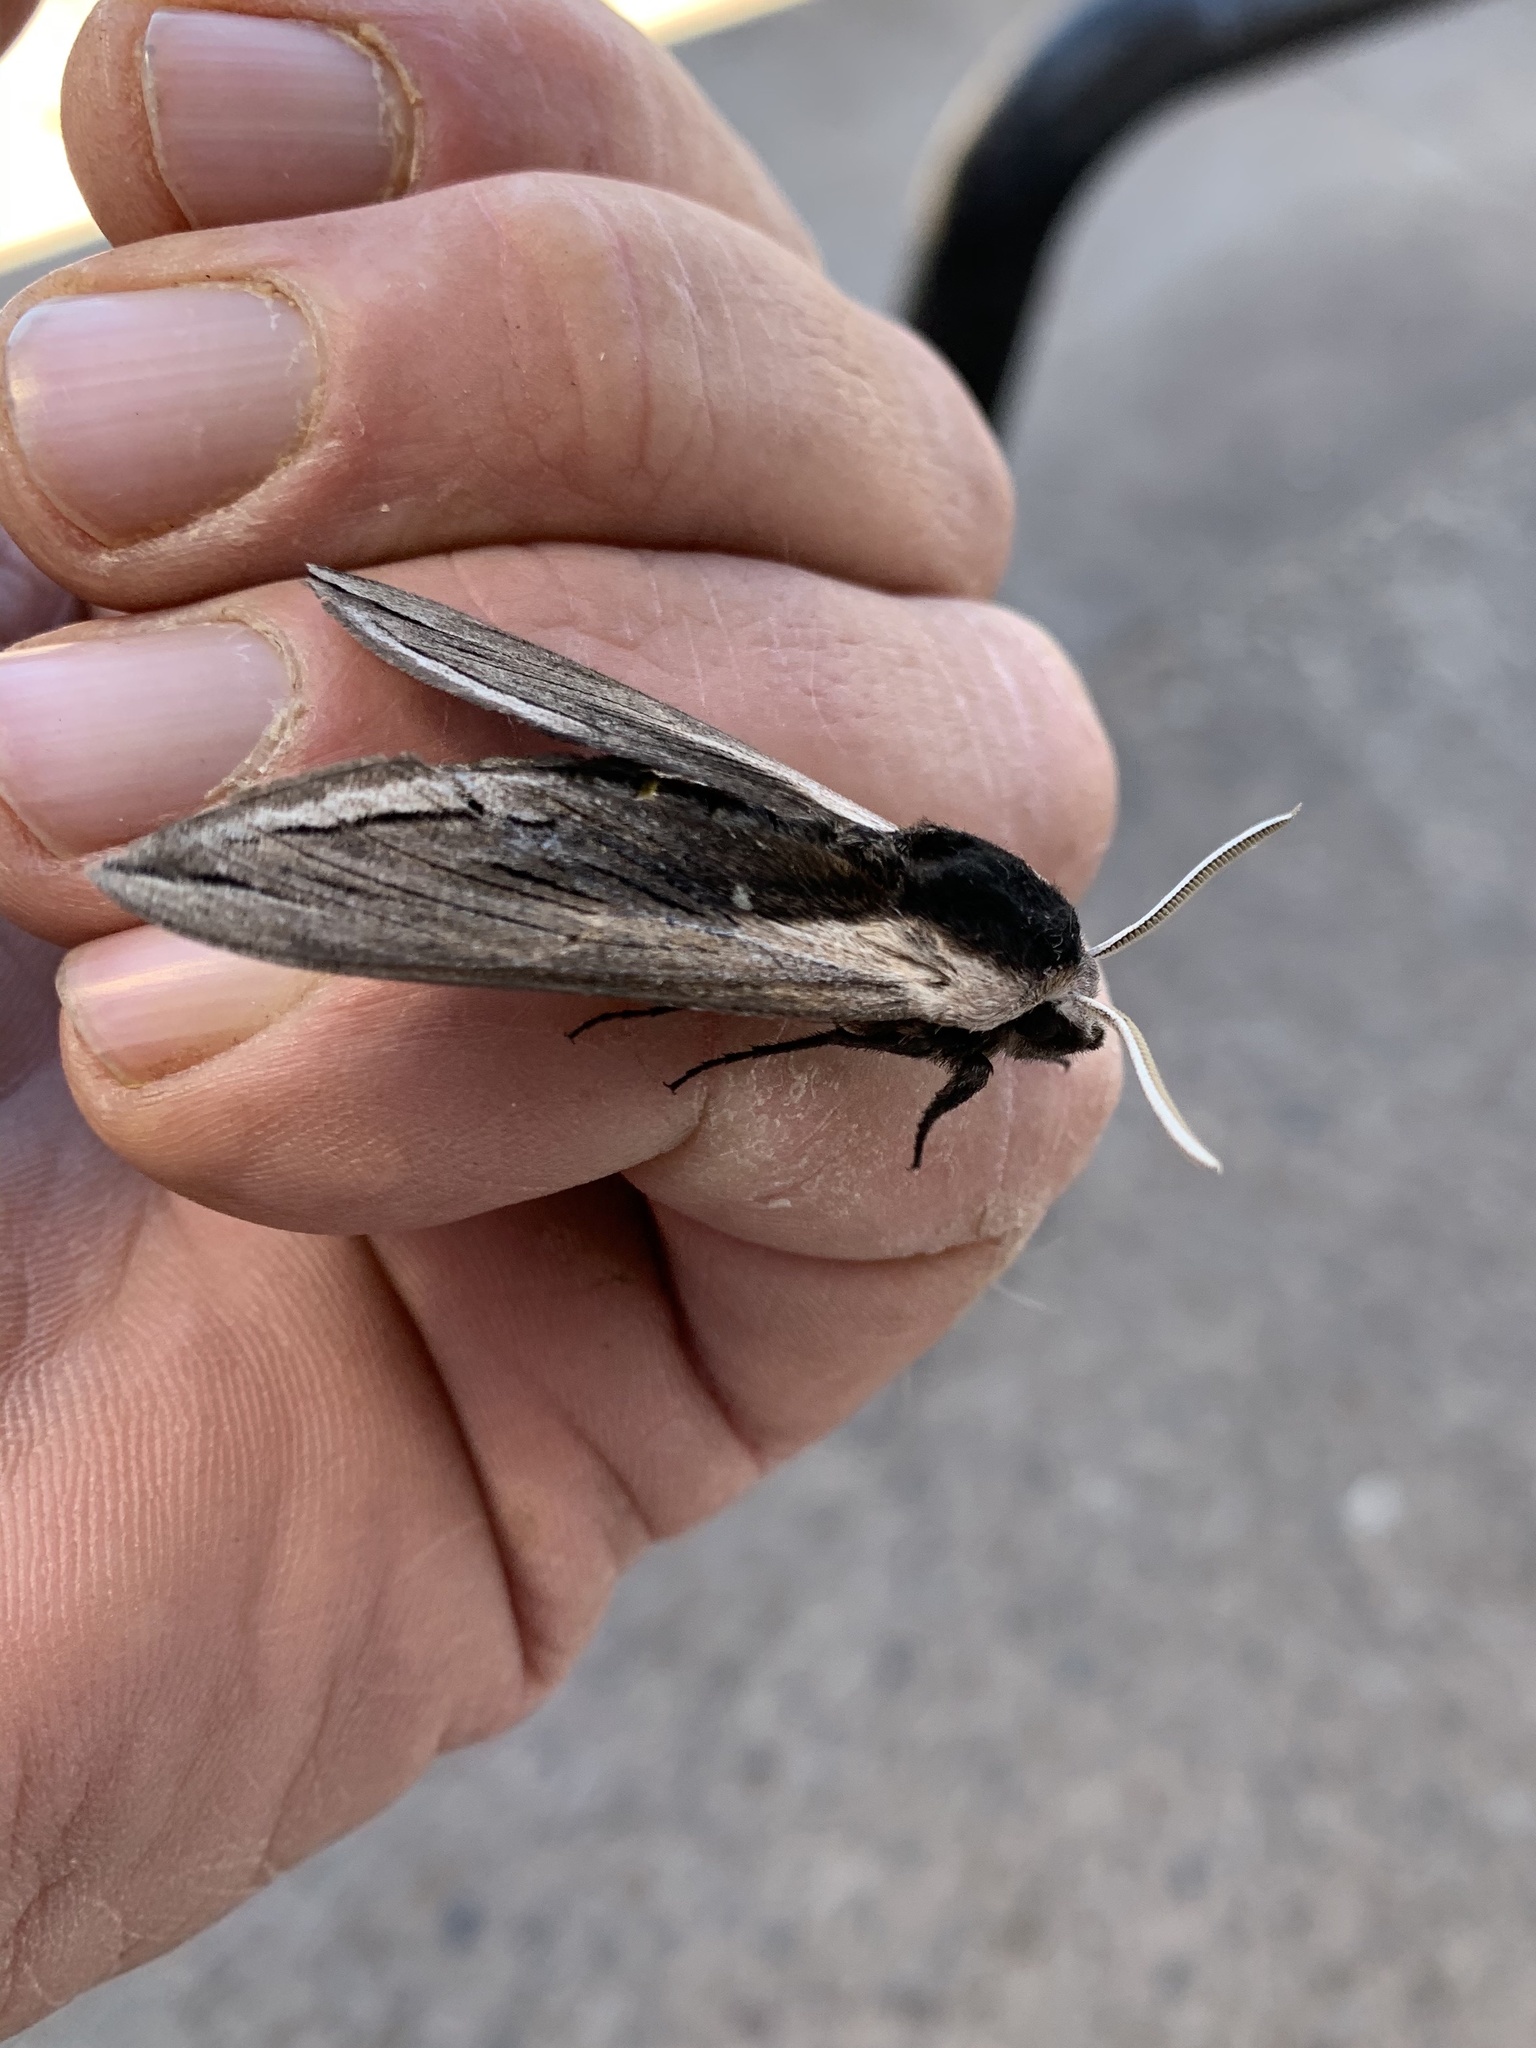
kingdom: Animalia
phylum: Arthropoda
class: Insecta
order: Lepidoptera
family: Sphingidae
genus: Sphinx
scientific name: Sphinx vashti
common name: Snowberry sphinx
